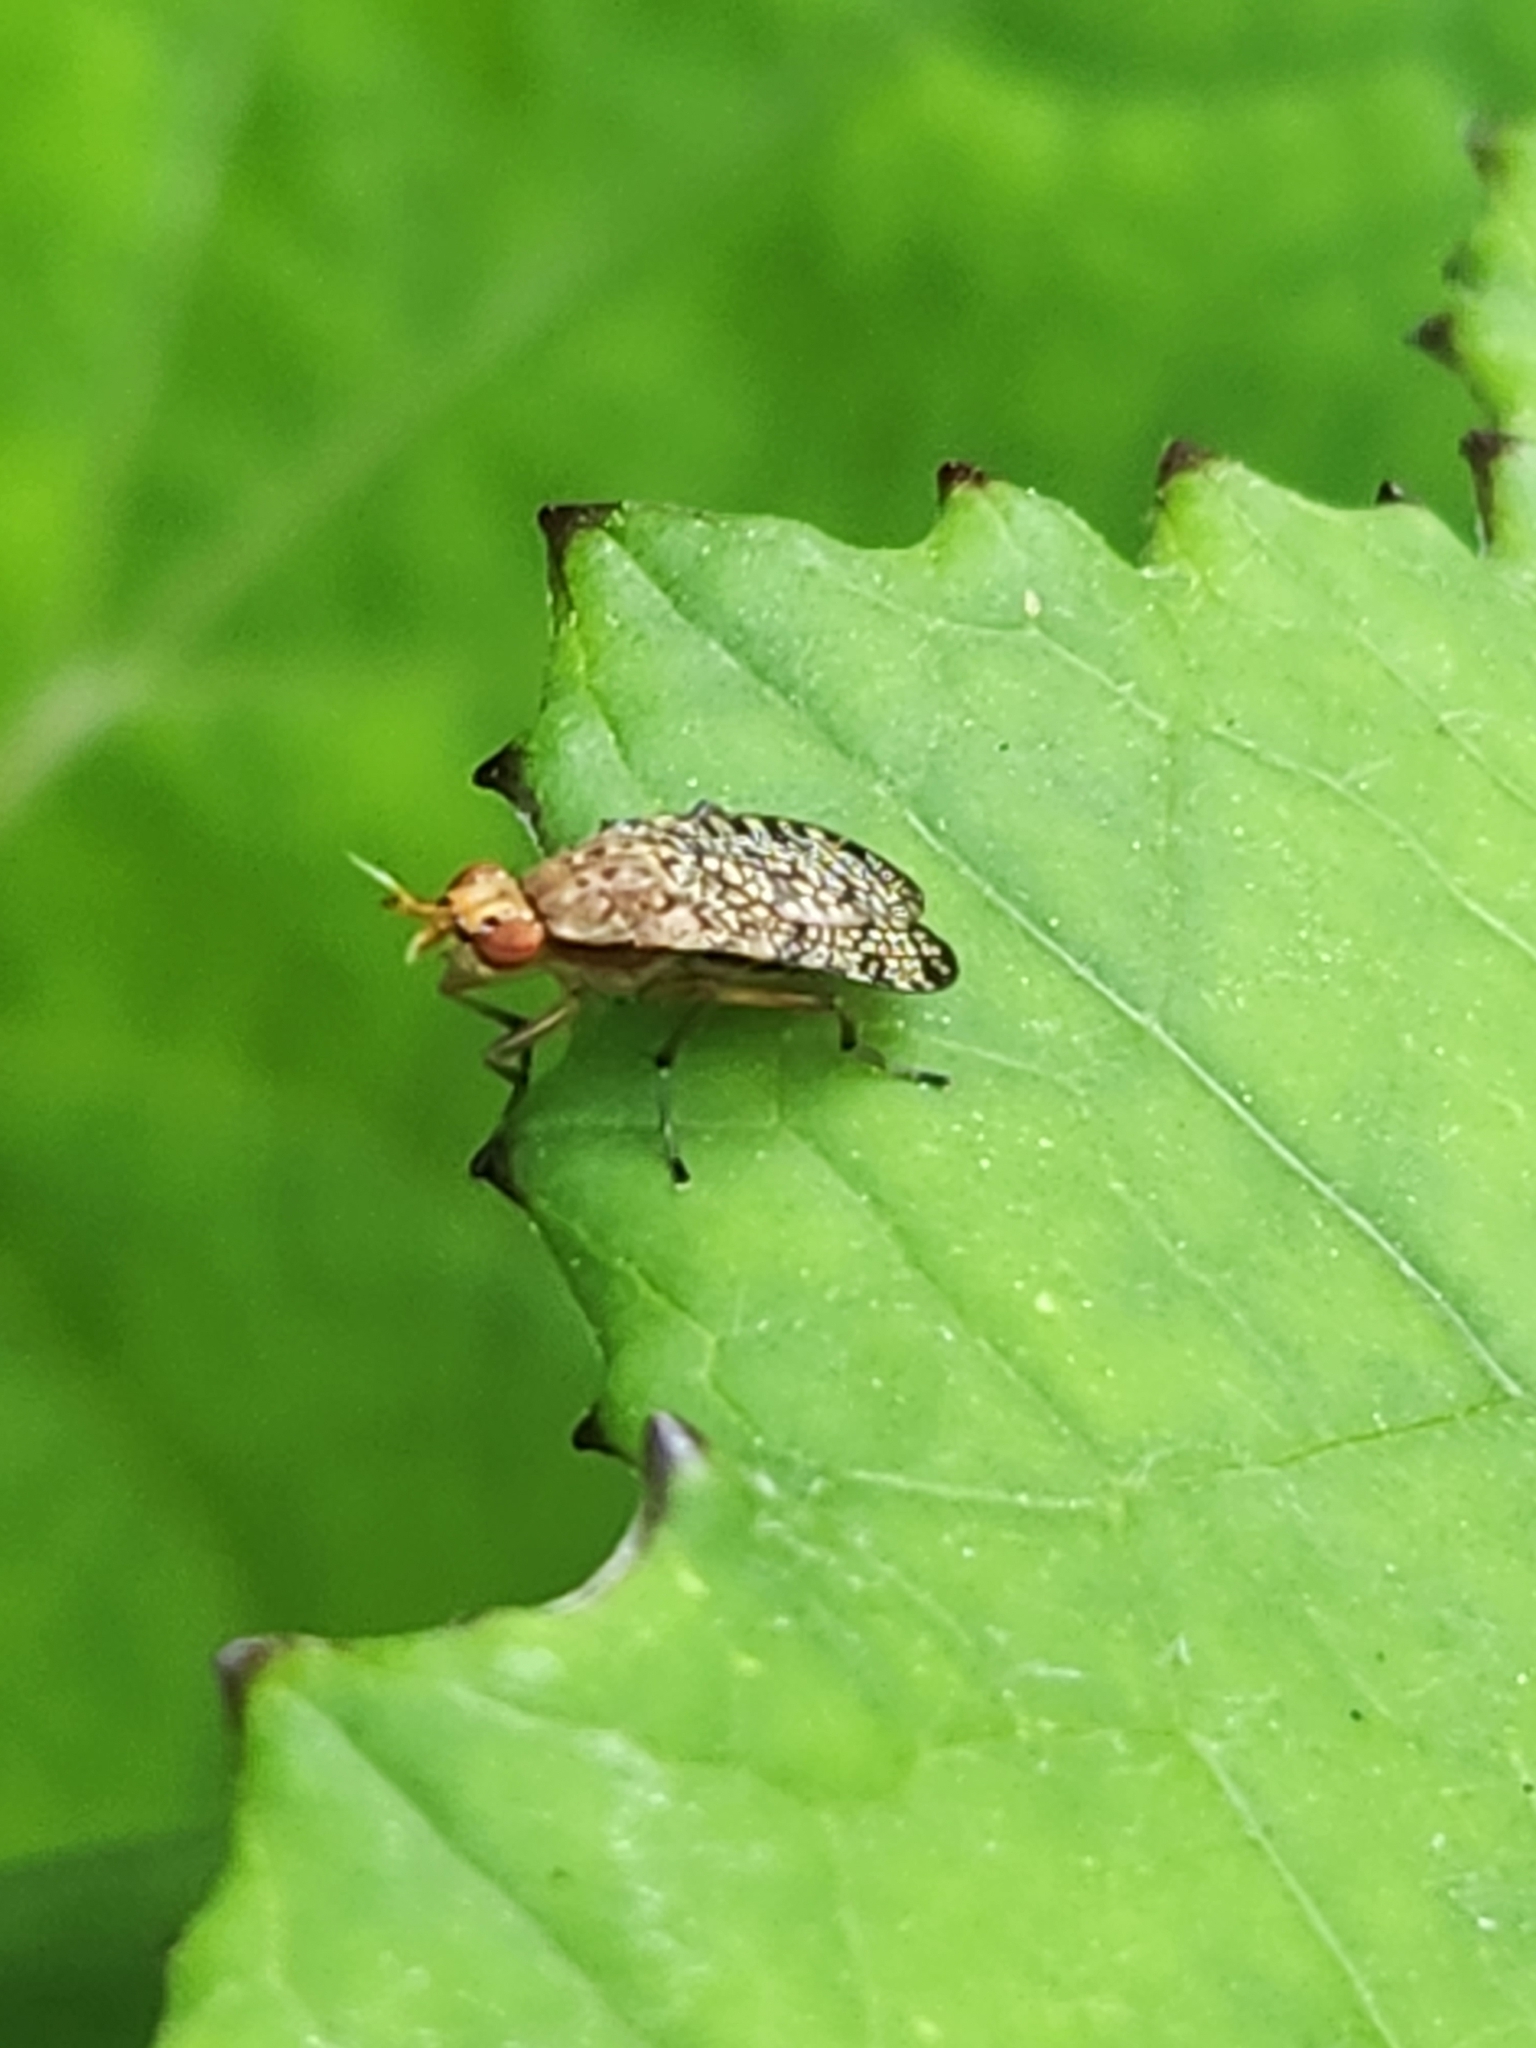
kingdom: Animalia
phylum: Arthropoda
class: Insecta
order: Diptera
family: Sciomyzidae
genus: Euthycera
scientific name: Euthycera flavescens
